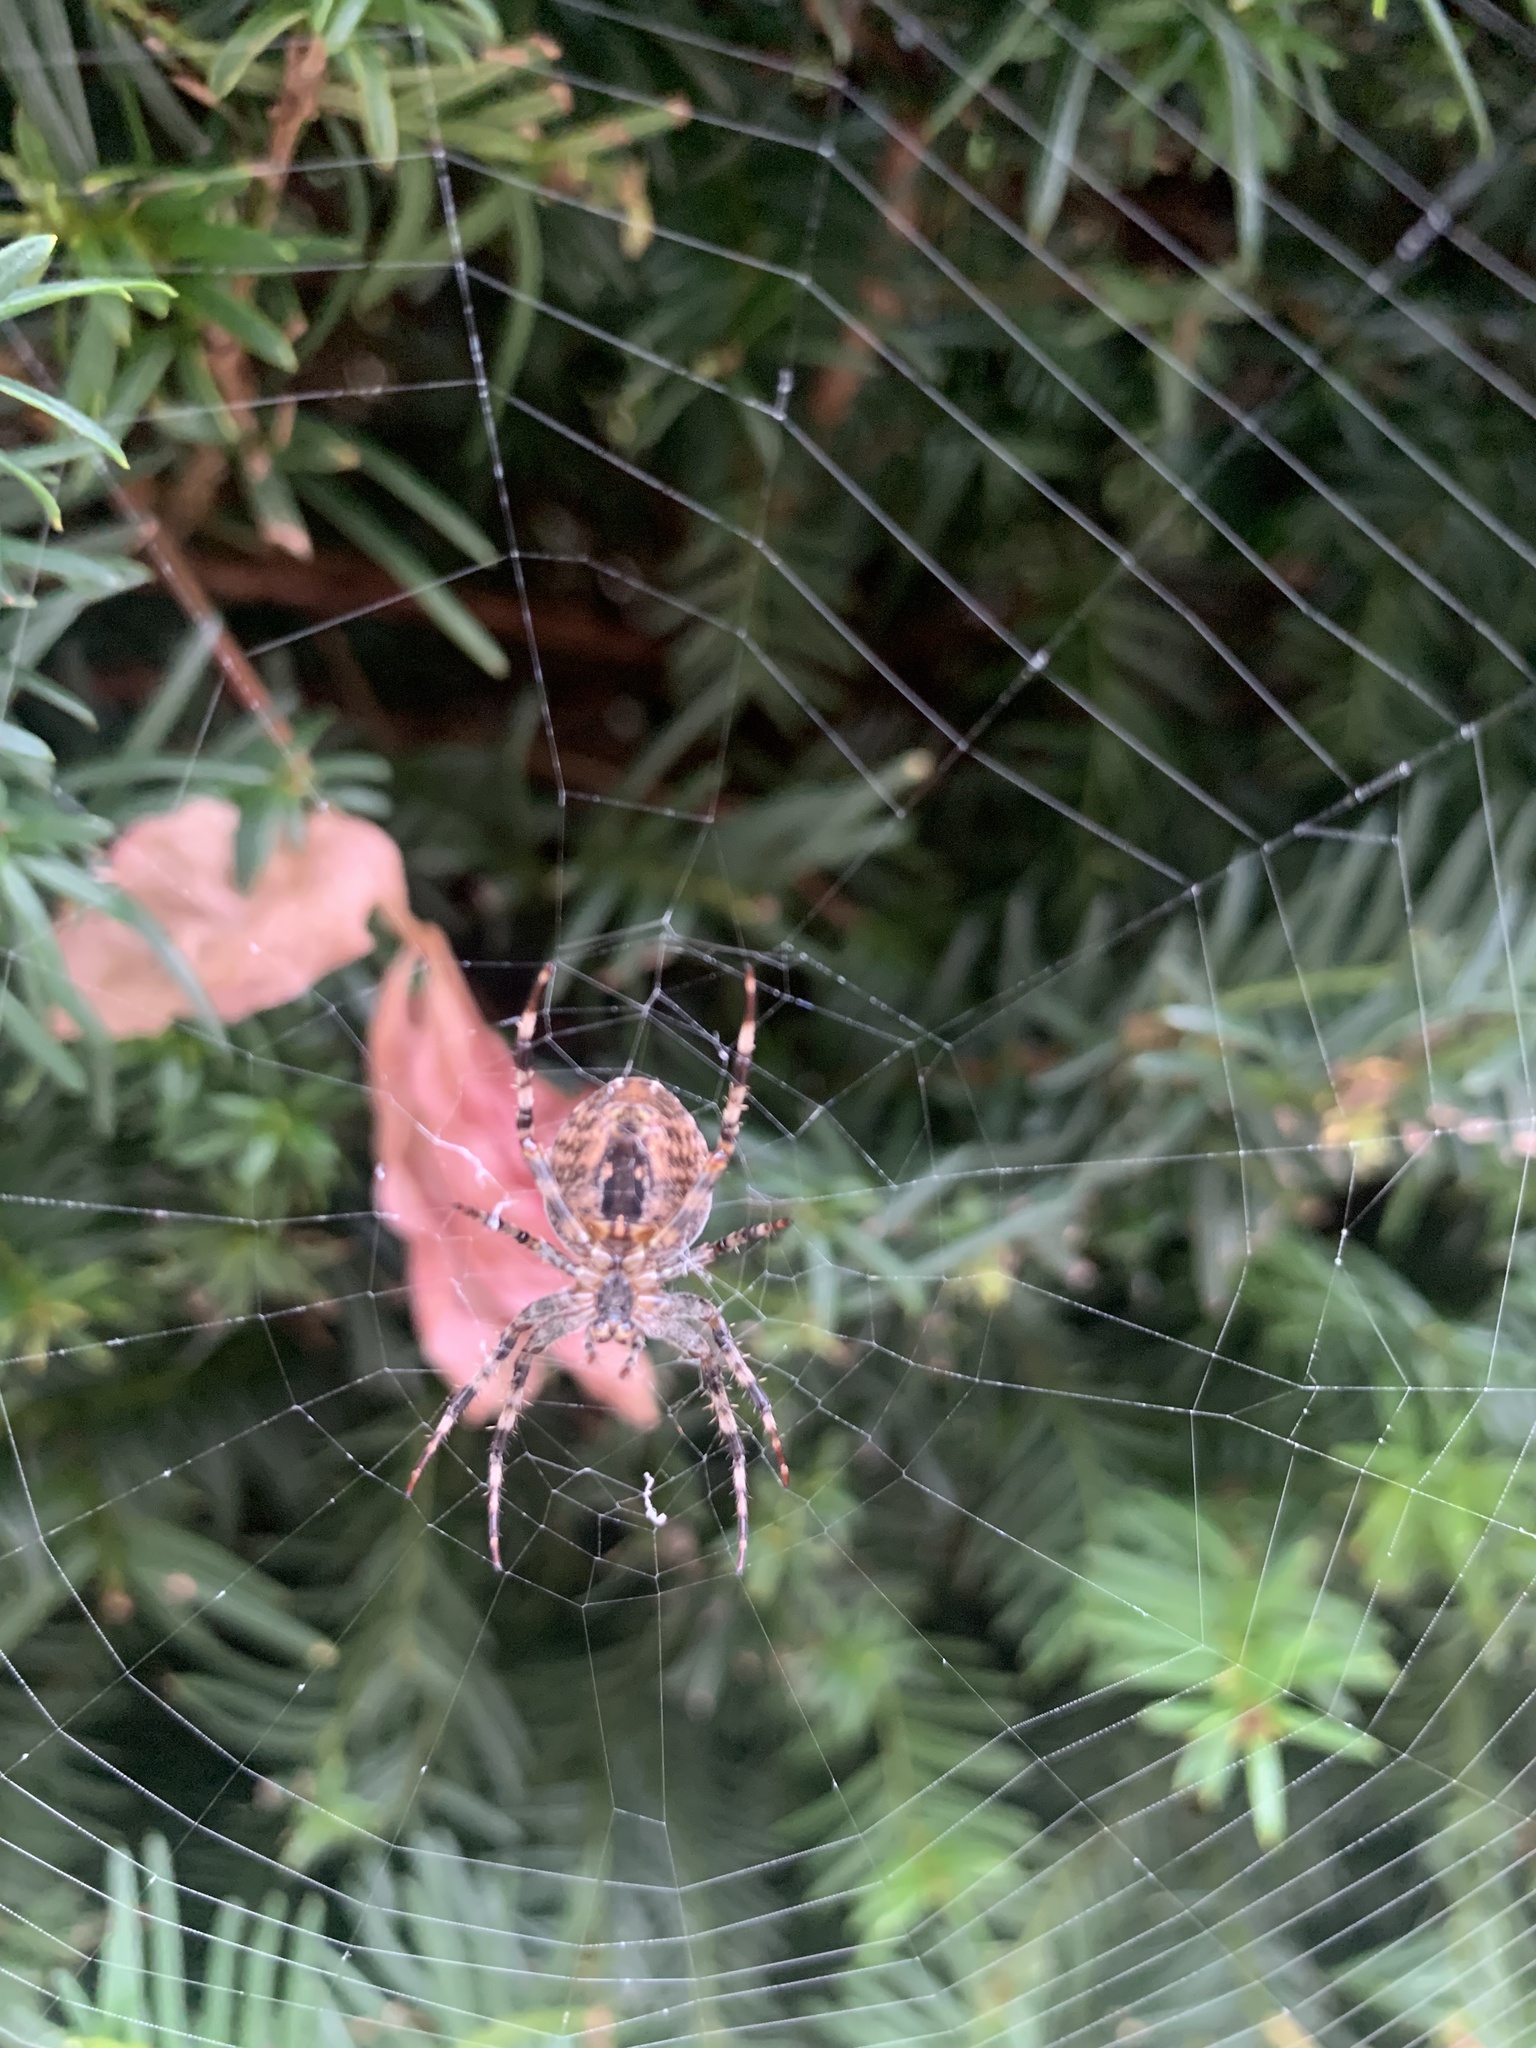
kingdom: Animalia
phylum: Arthropoda
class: Arachnida
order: Araneae
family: Araneidae
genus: Araneus
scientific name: Araneus diadematus
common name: Cross orbweaver
